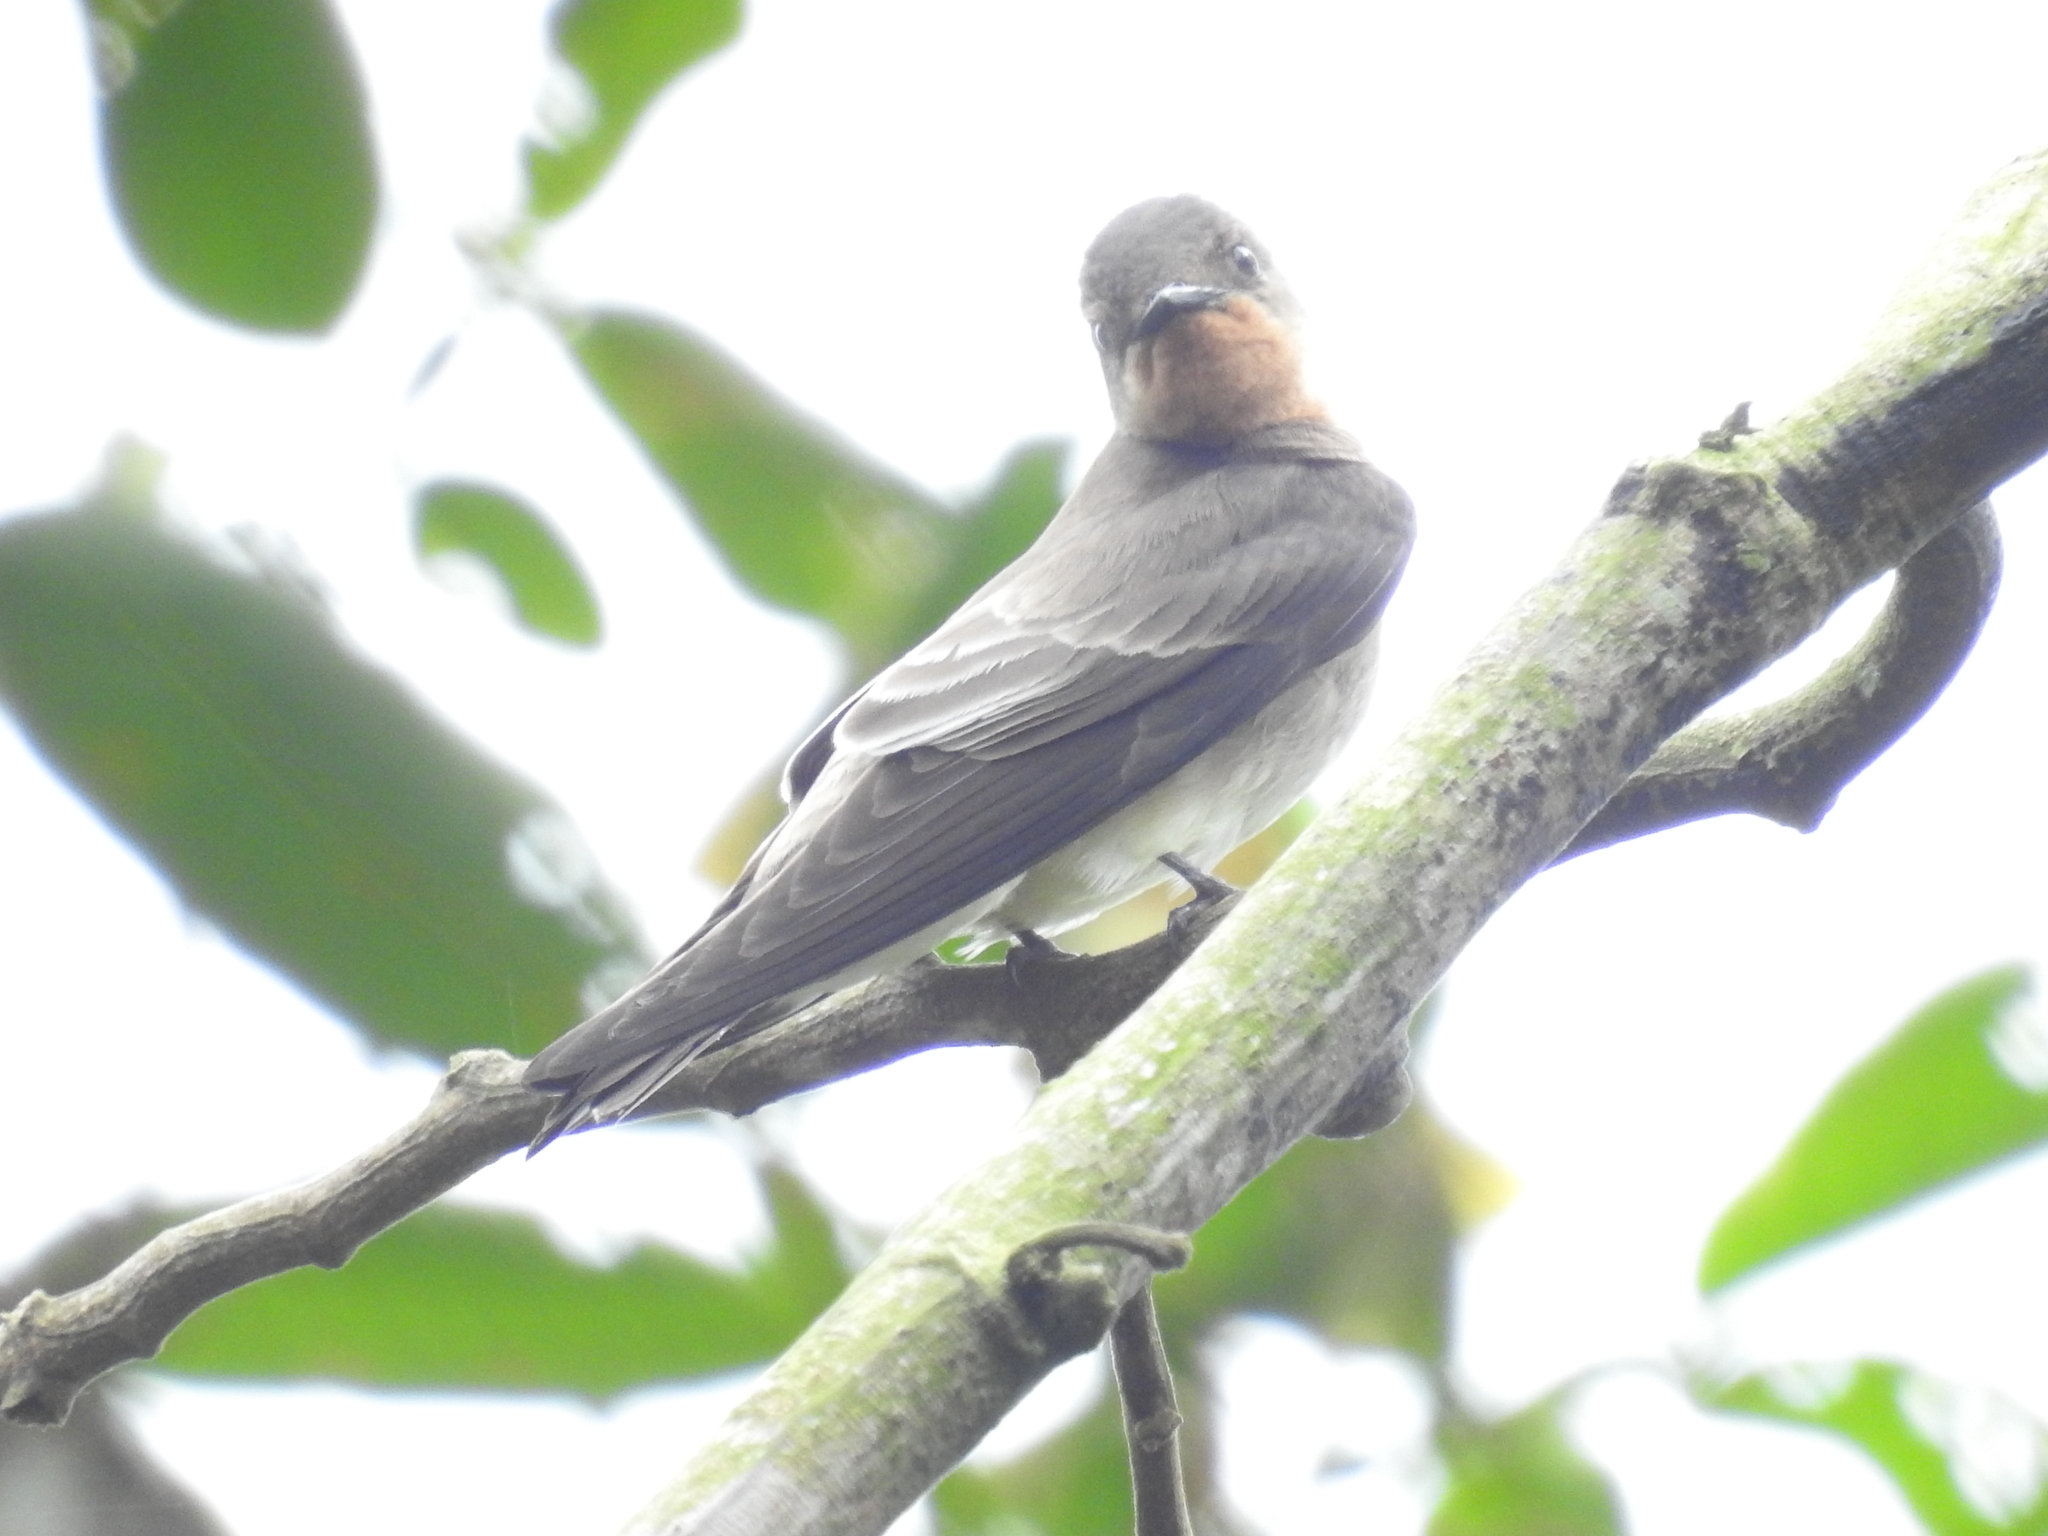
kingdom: Animalia
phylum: Chordata
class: Aves
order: Passeriformes
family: Hirundinidae
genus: Stelgidopteryx
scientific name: Stelgidopteryx ruficollis
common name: Southern rough-winged swallow
